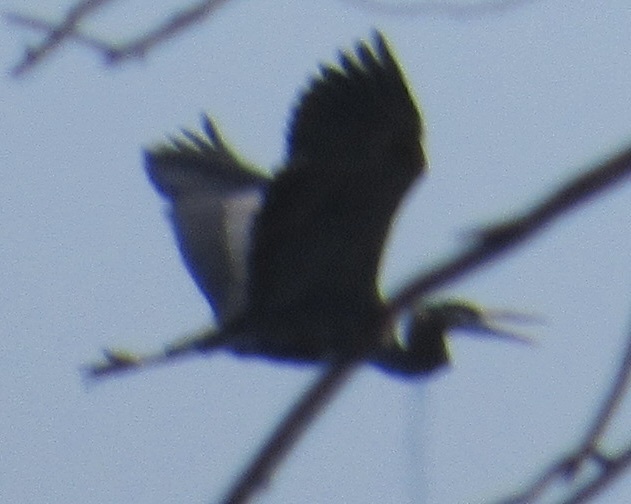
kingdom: Animalia
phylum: Chordata
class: Aves
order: Pelecaniformes
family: Ardeidae
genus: Ardea
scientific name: Ardea herodias
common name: Great blue heron
